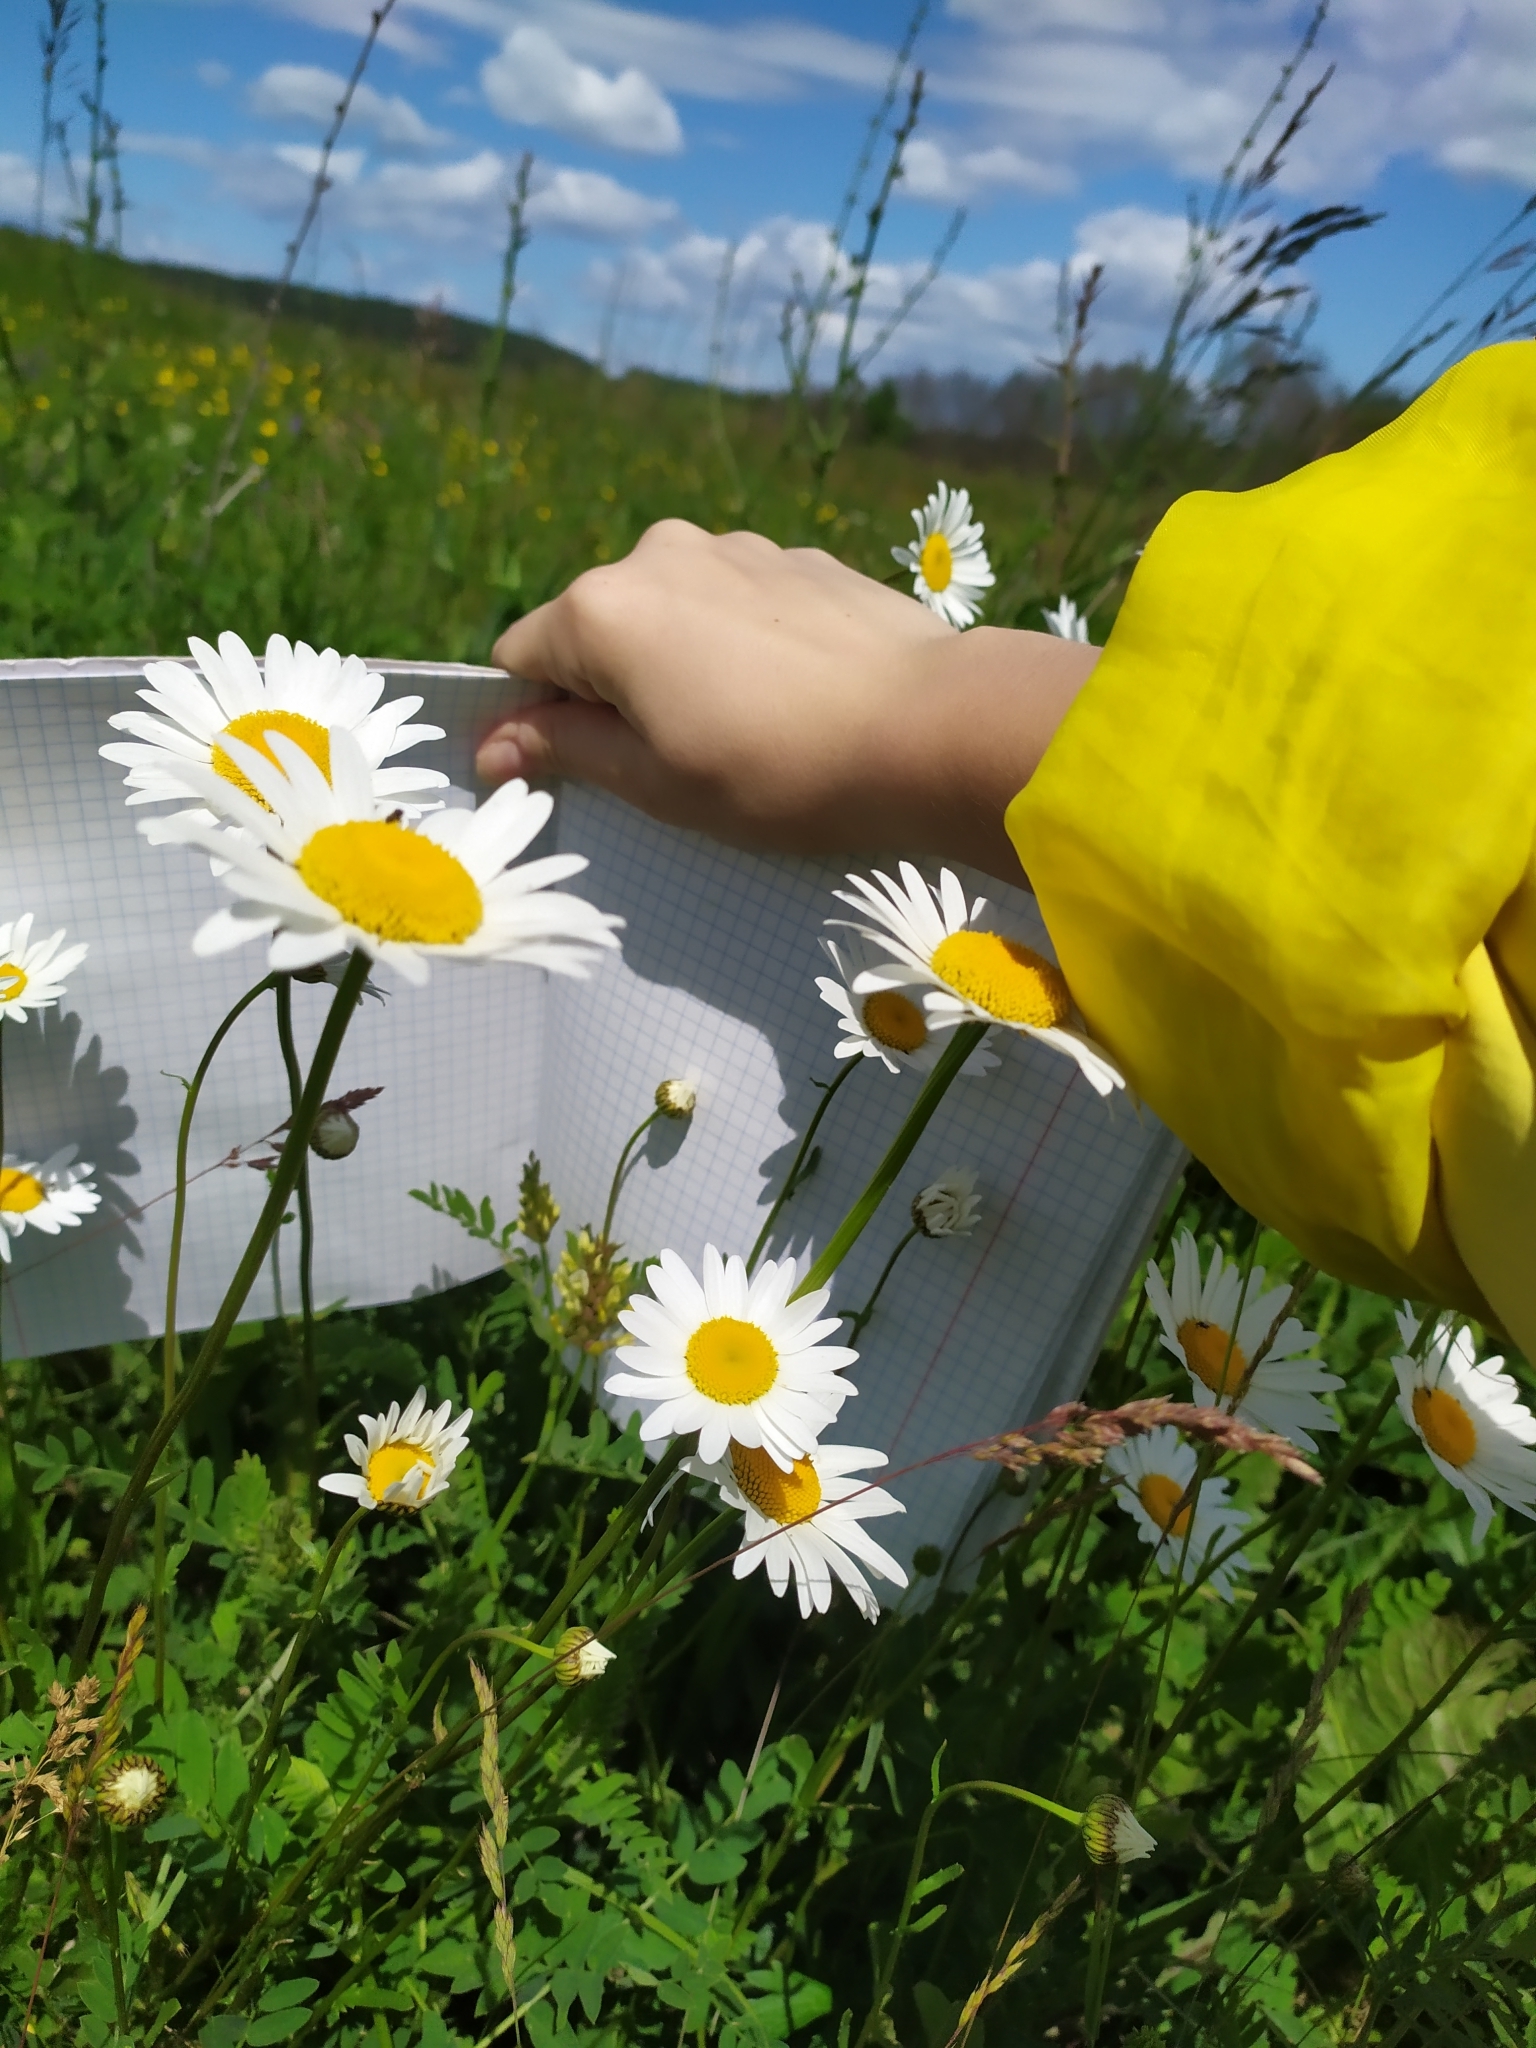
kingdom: Plantae
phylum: Tracheophyta
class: Magnoliopsida
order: Asterales
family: Asteraceae
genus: Leucanthemum
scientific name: Leucanthemum vulgare
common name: Oxeye daisy
